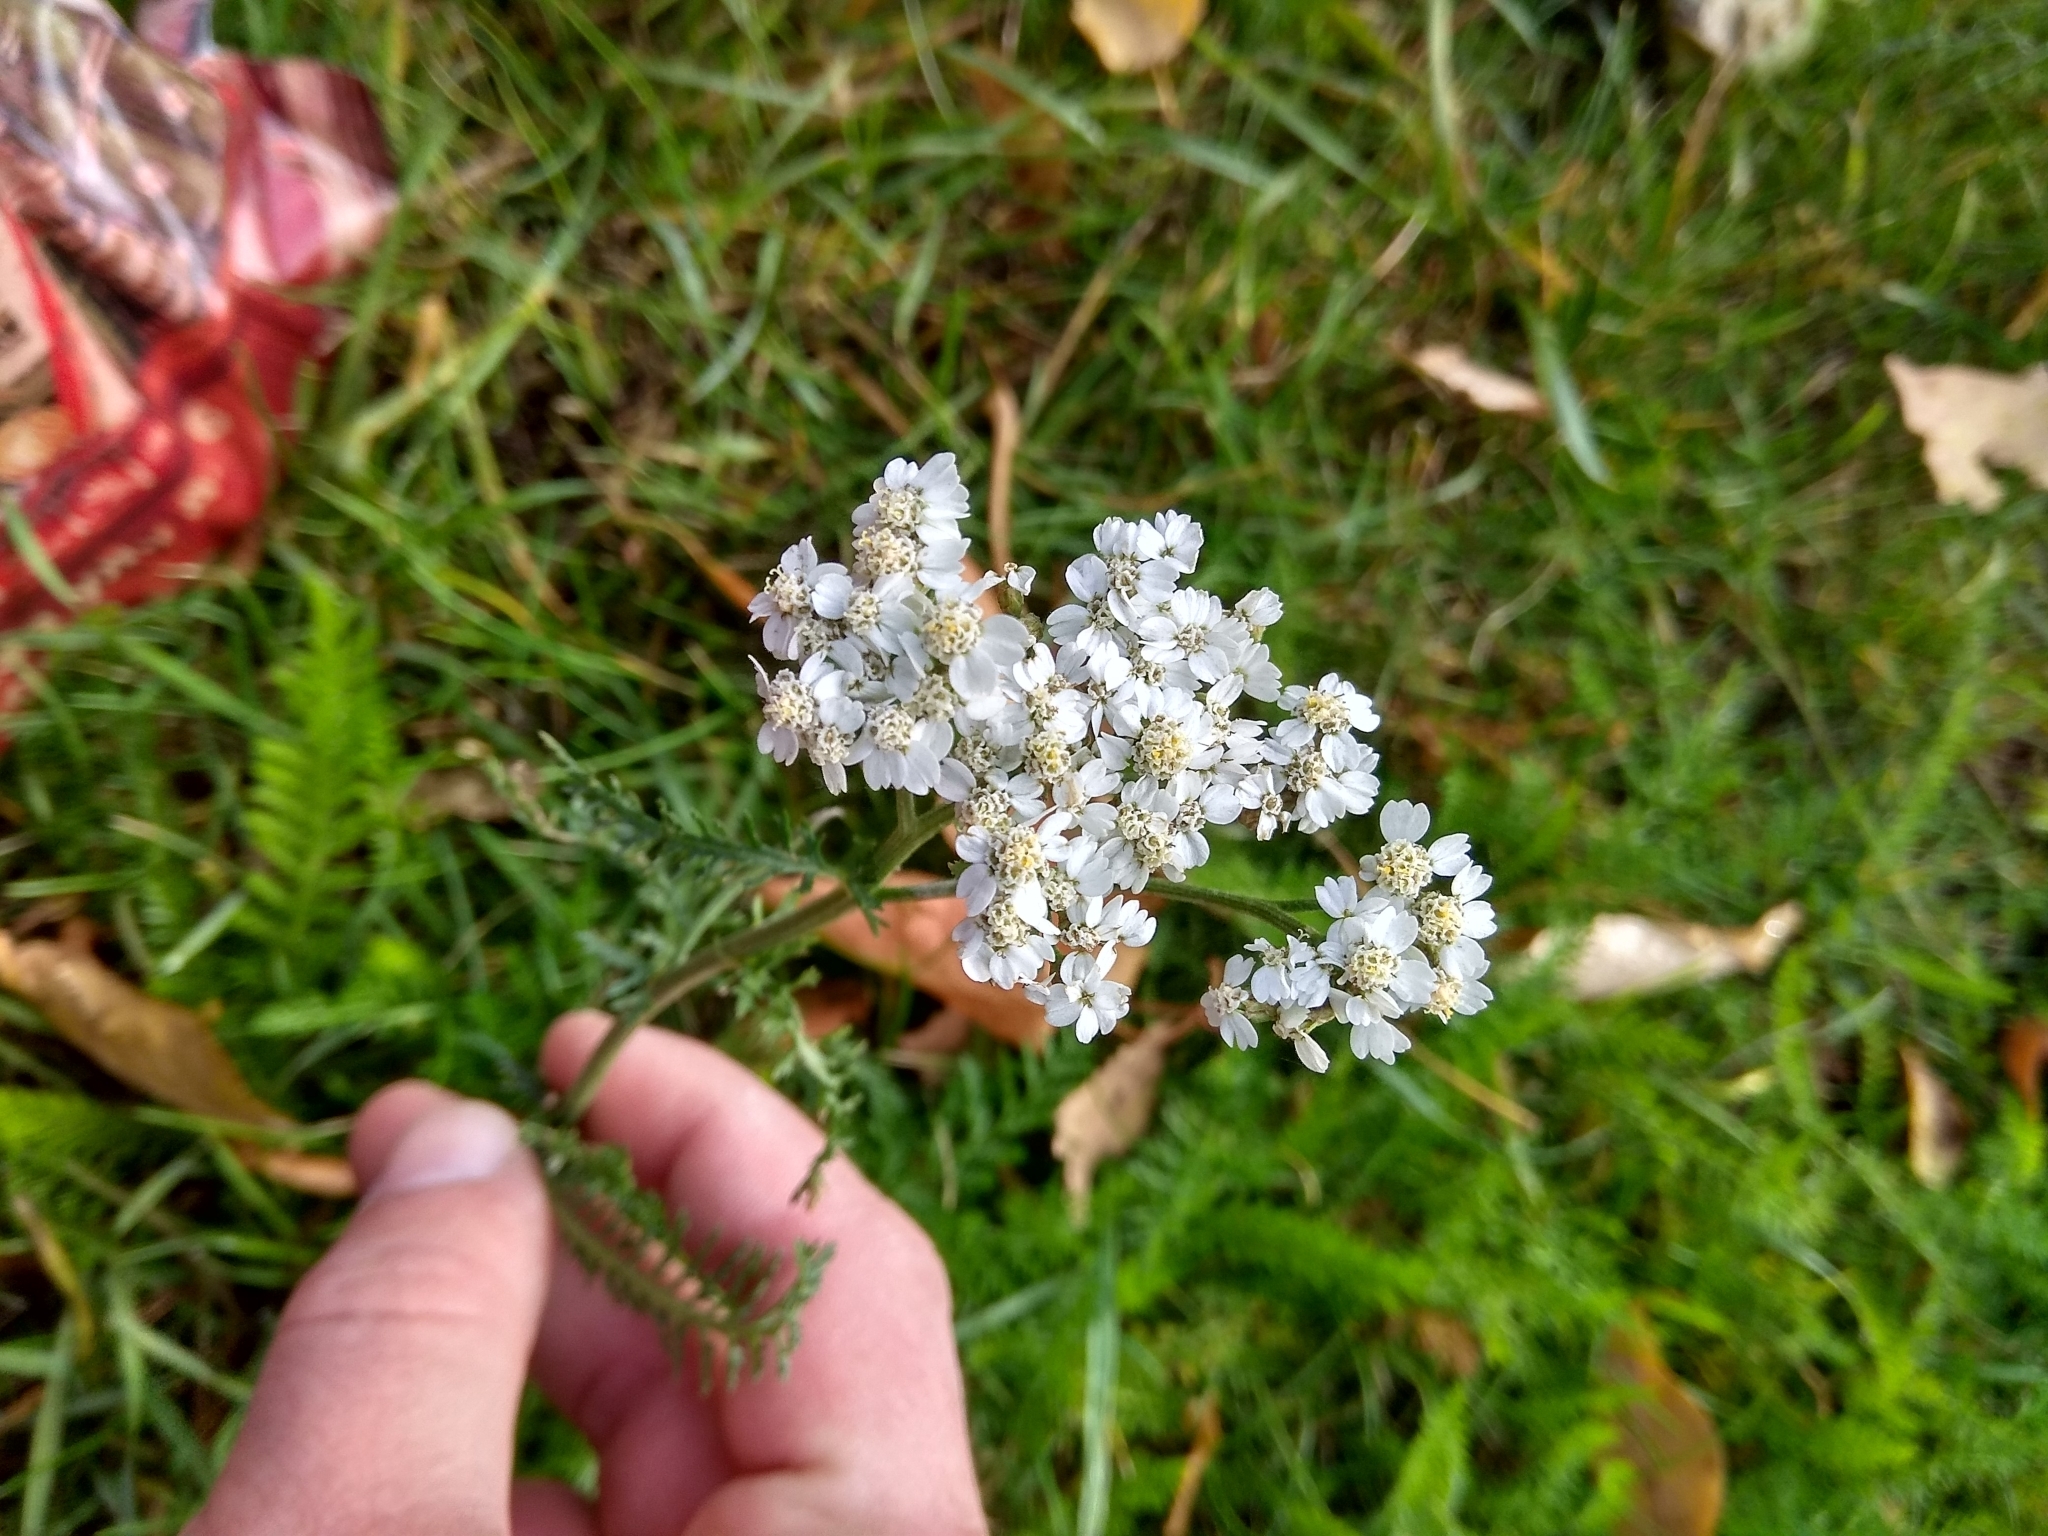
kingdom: Plantae
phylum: Tracheophyta
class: Magnoliopsida
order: Asterales
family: Asteraceae
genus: Achillea
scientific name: Achillea millefolium
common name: Yarrow
